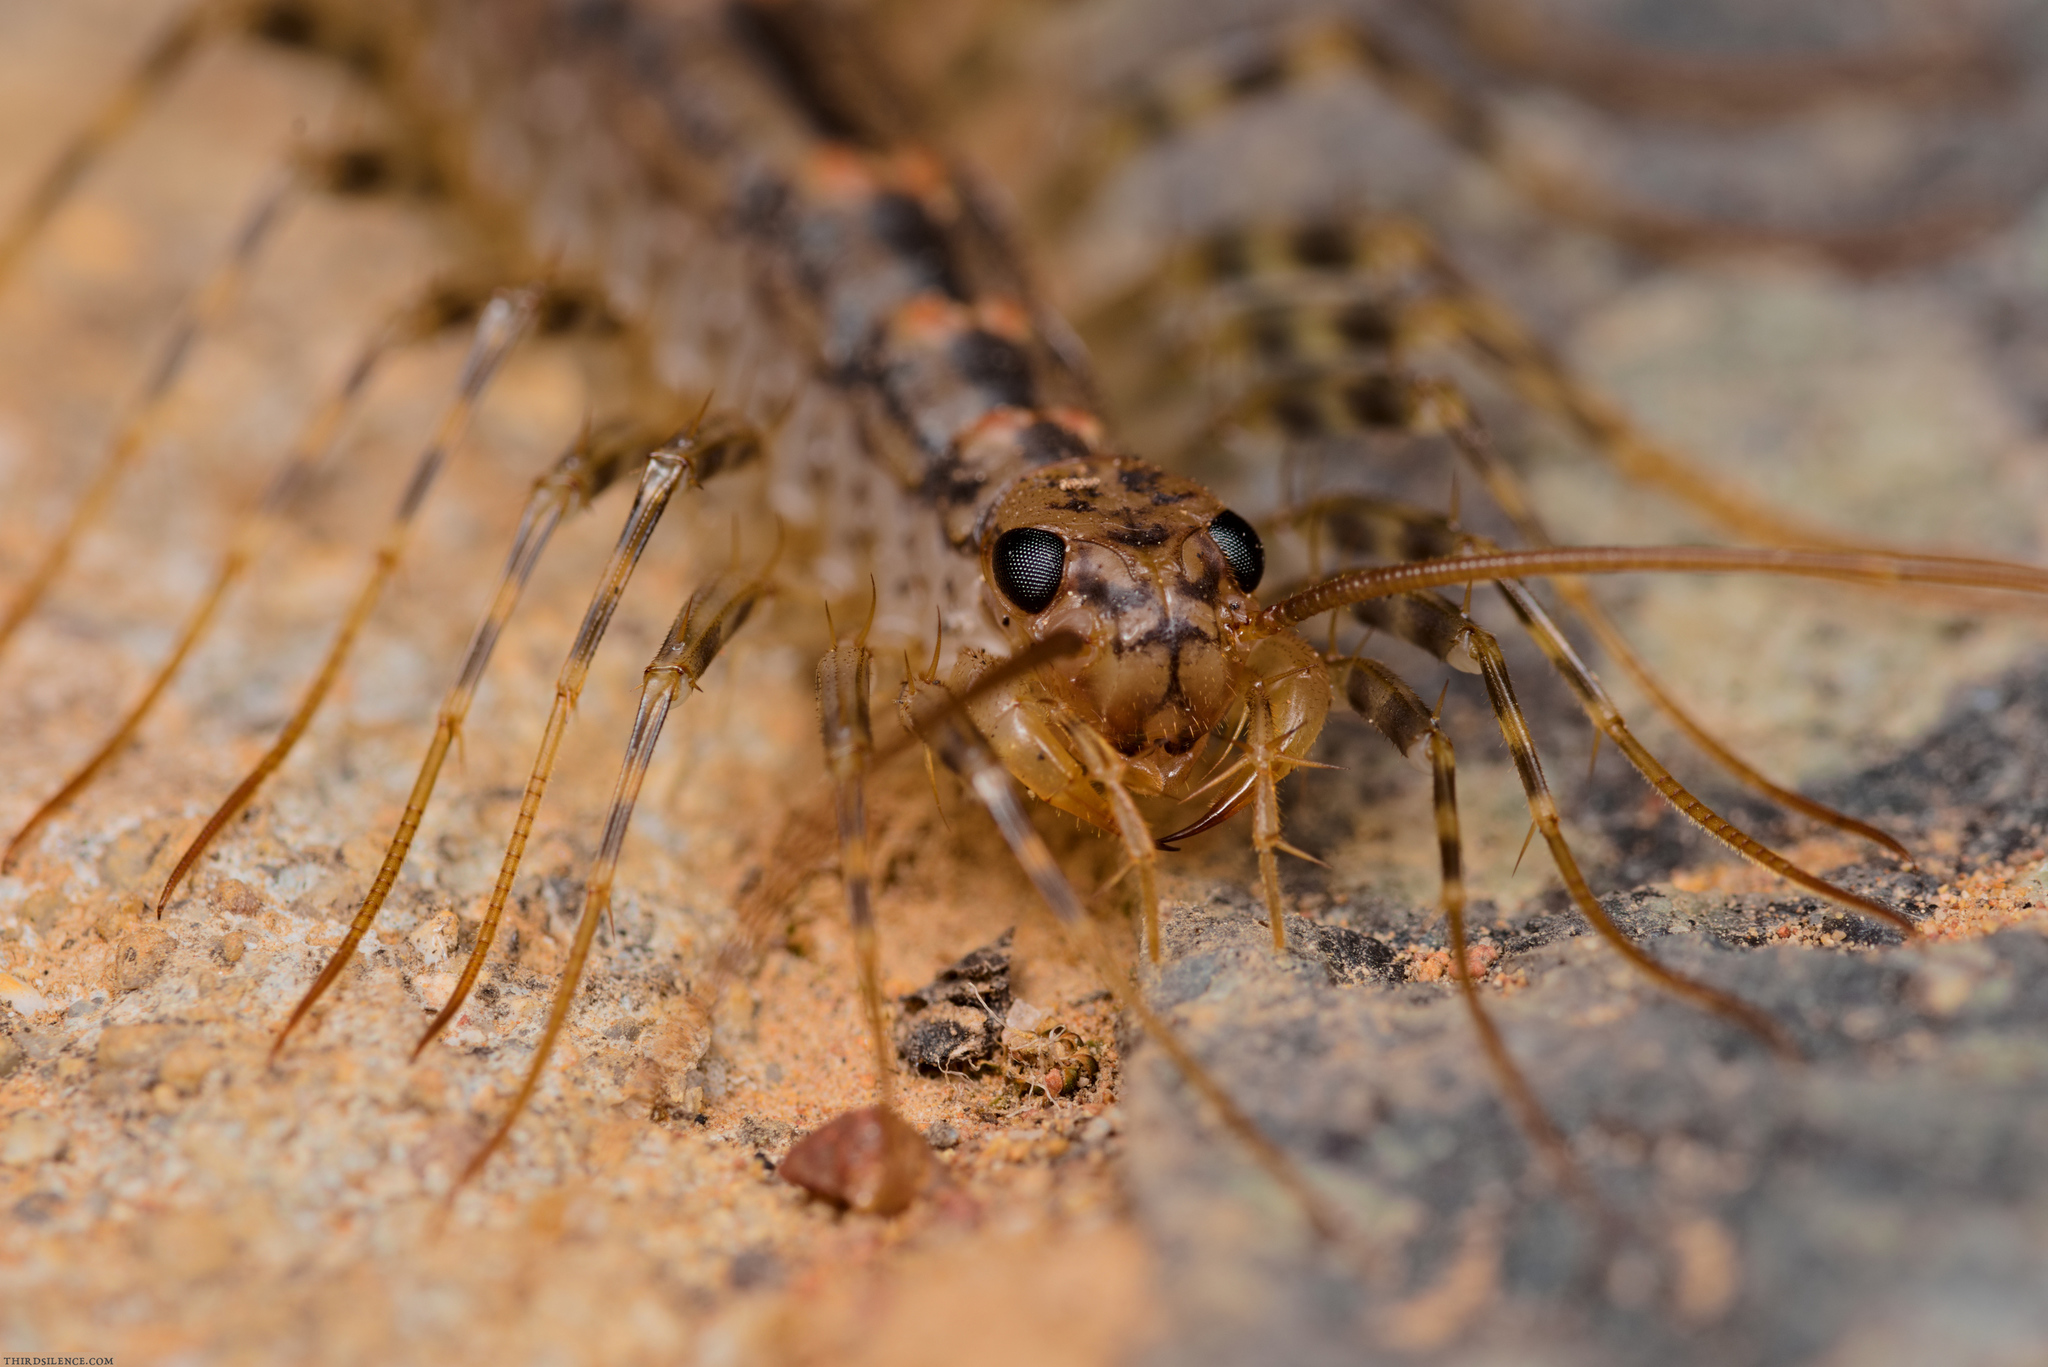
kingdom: Animalia
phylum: Arthropoda
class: Chilopoda
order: Scutigeromorpha
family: Scutigeridae
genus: Allothereua
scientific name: Allothereua maculata
